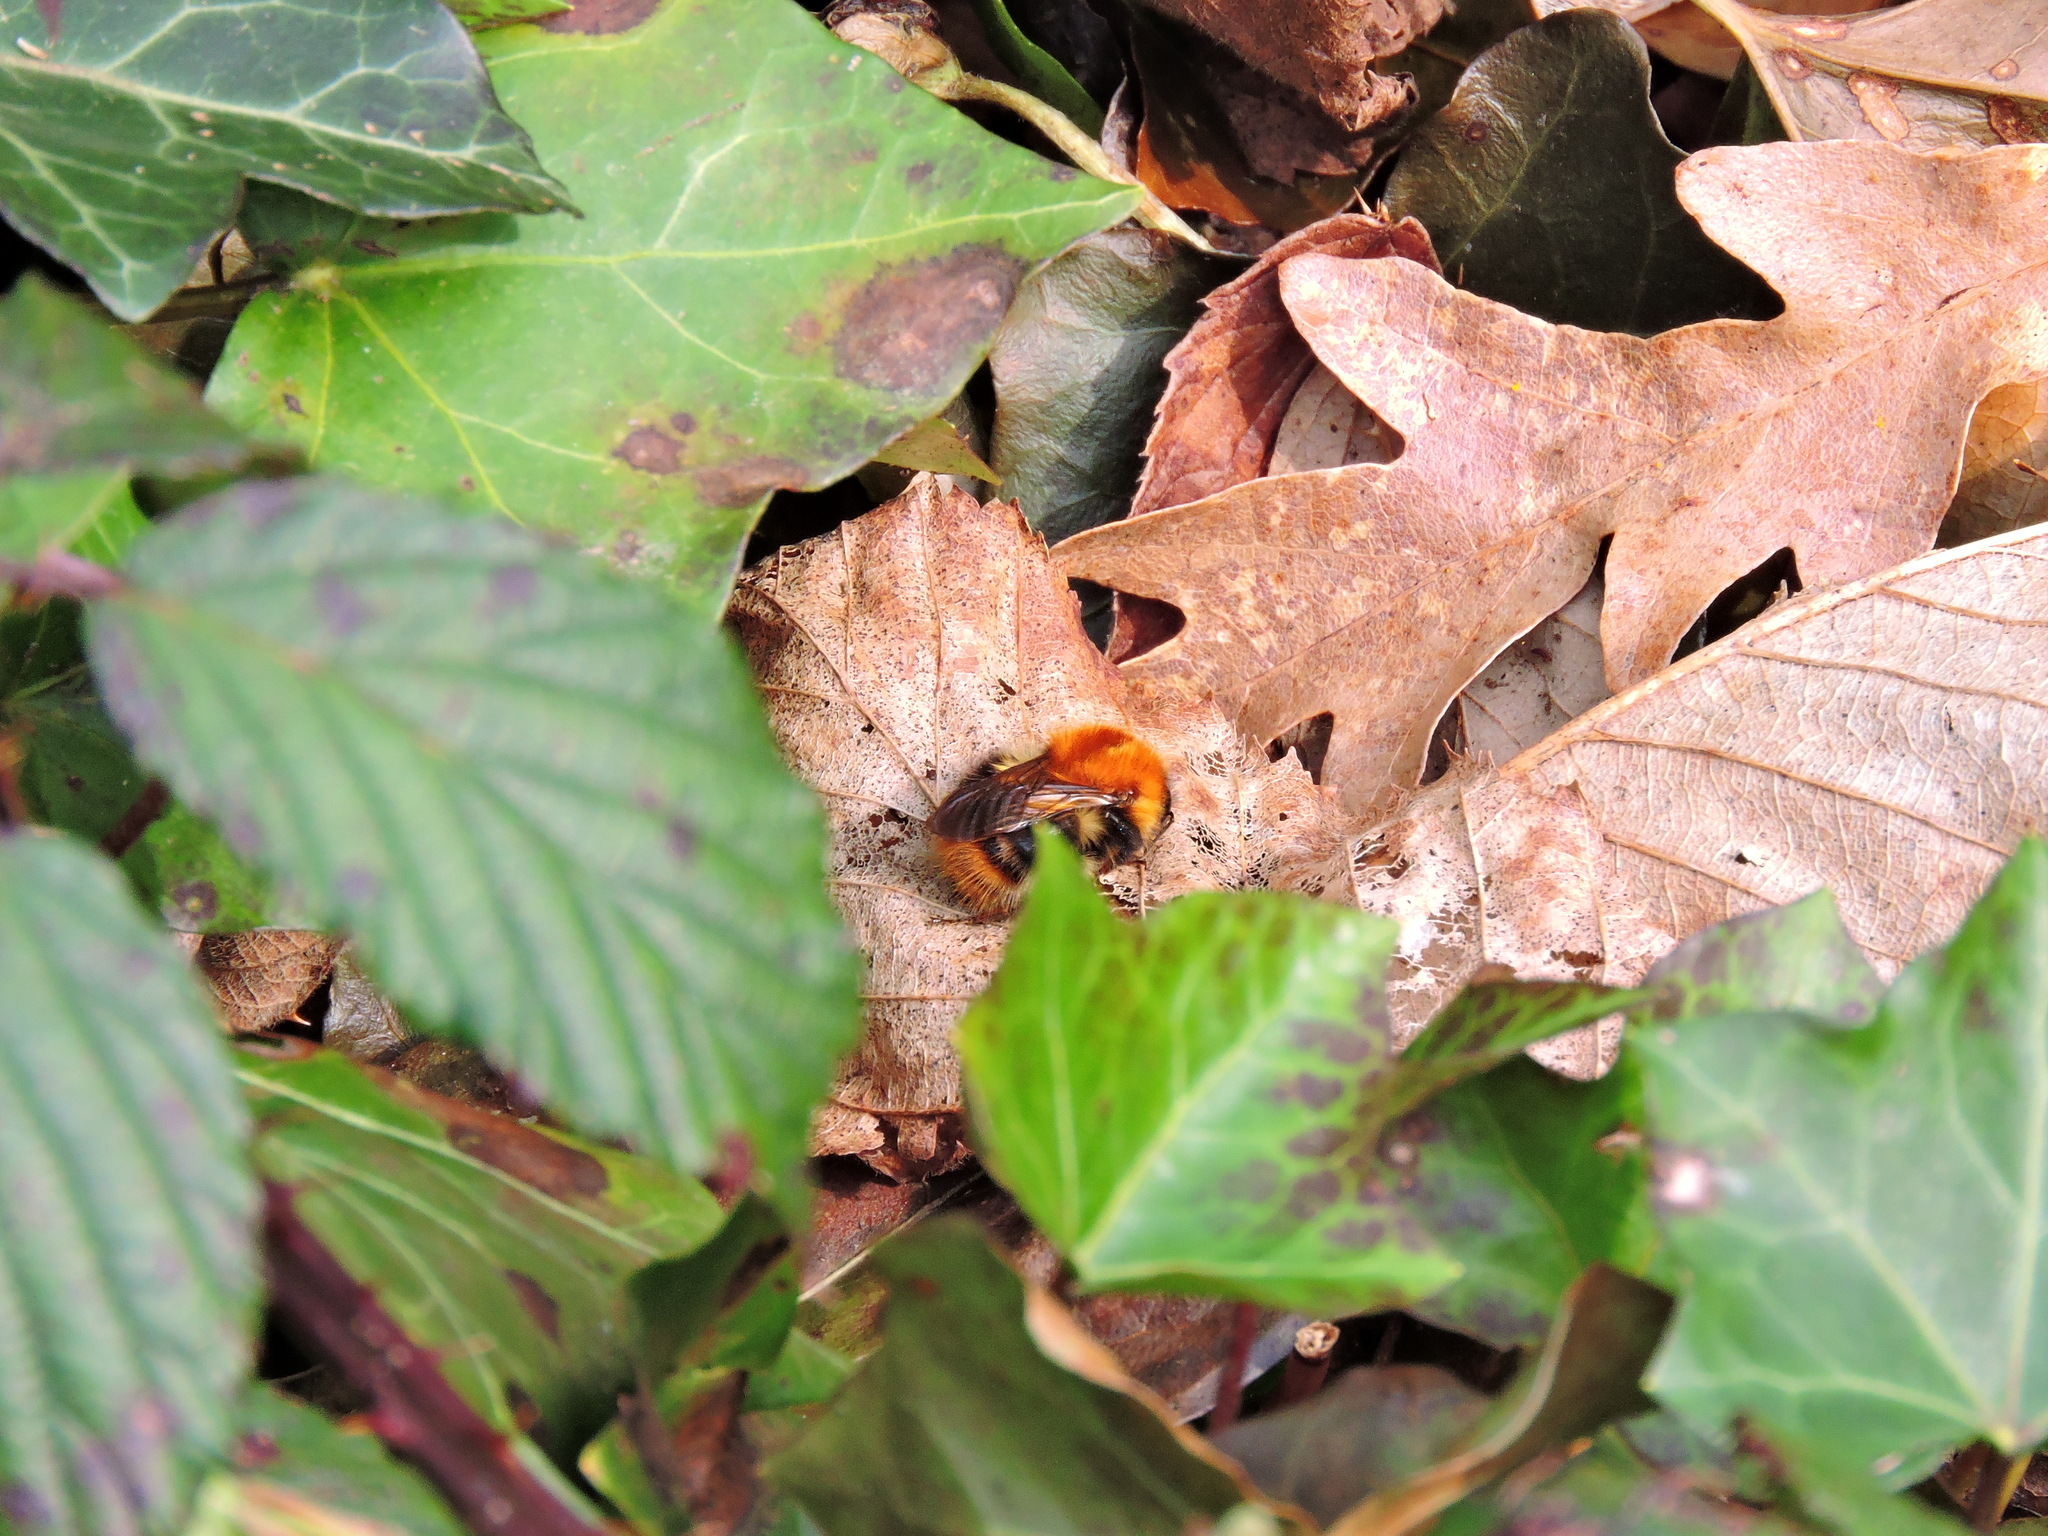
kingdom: Animalia
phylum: Arthropoda
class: Insecta
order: Hymenoptera
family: Apidae
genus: Bombus
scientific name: Bombus pascuorum
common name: Common carder bee
